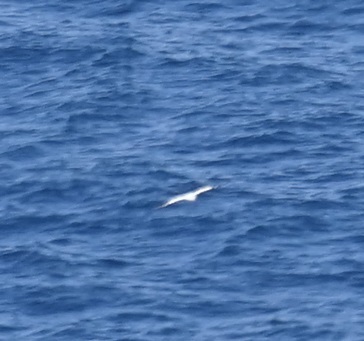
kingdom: Animalia
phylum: Chordata
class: Aves
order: Suliformes
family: Sulidae
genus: Morus
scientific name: Morus serrator
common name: Australasian gannet
